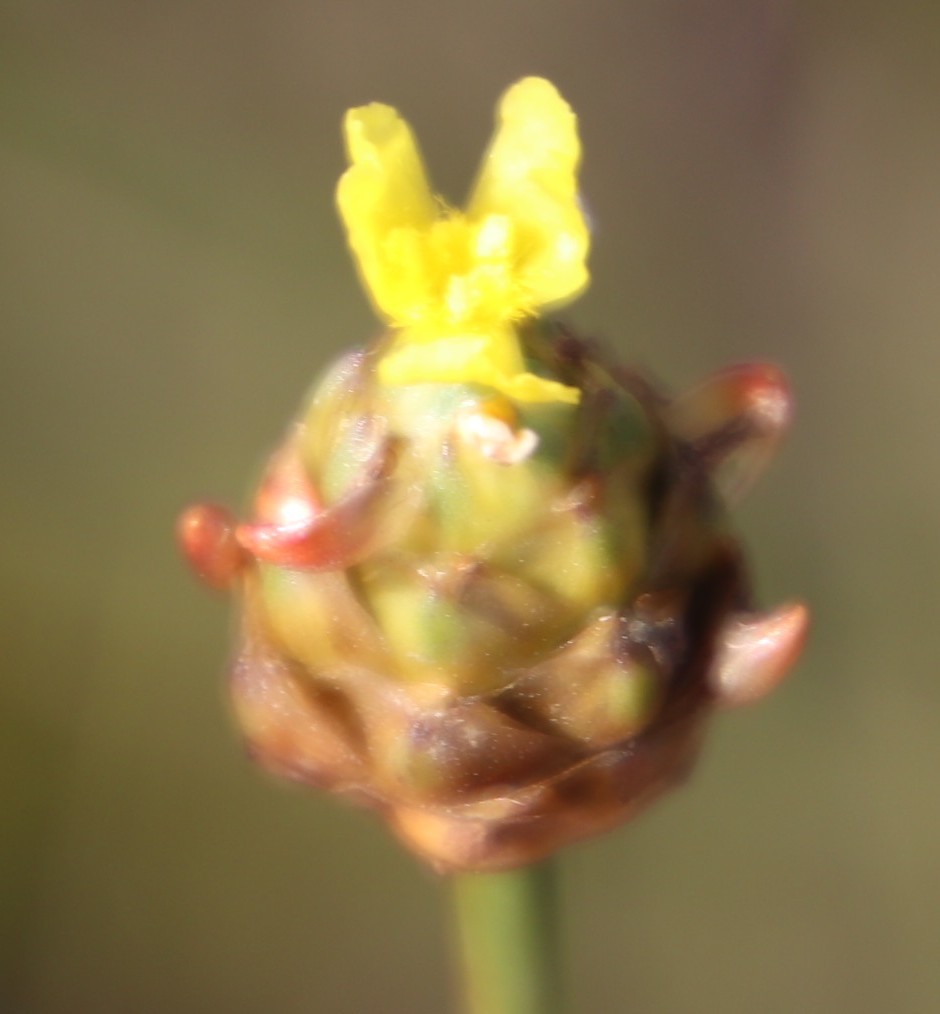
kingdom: Plantae
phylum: Tracheophyta
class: Liliopsida
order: Poales
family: Xyridaceae
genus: Xyris
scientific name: Xyris capensis
